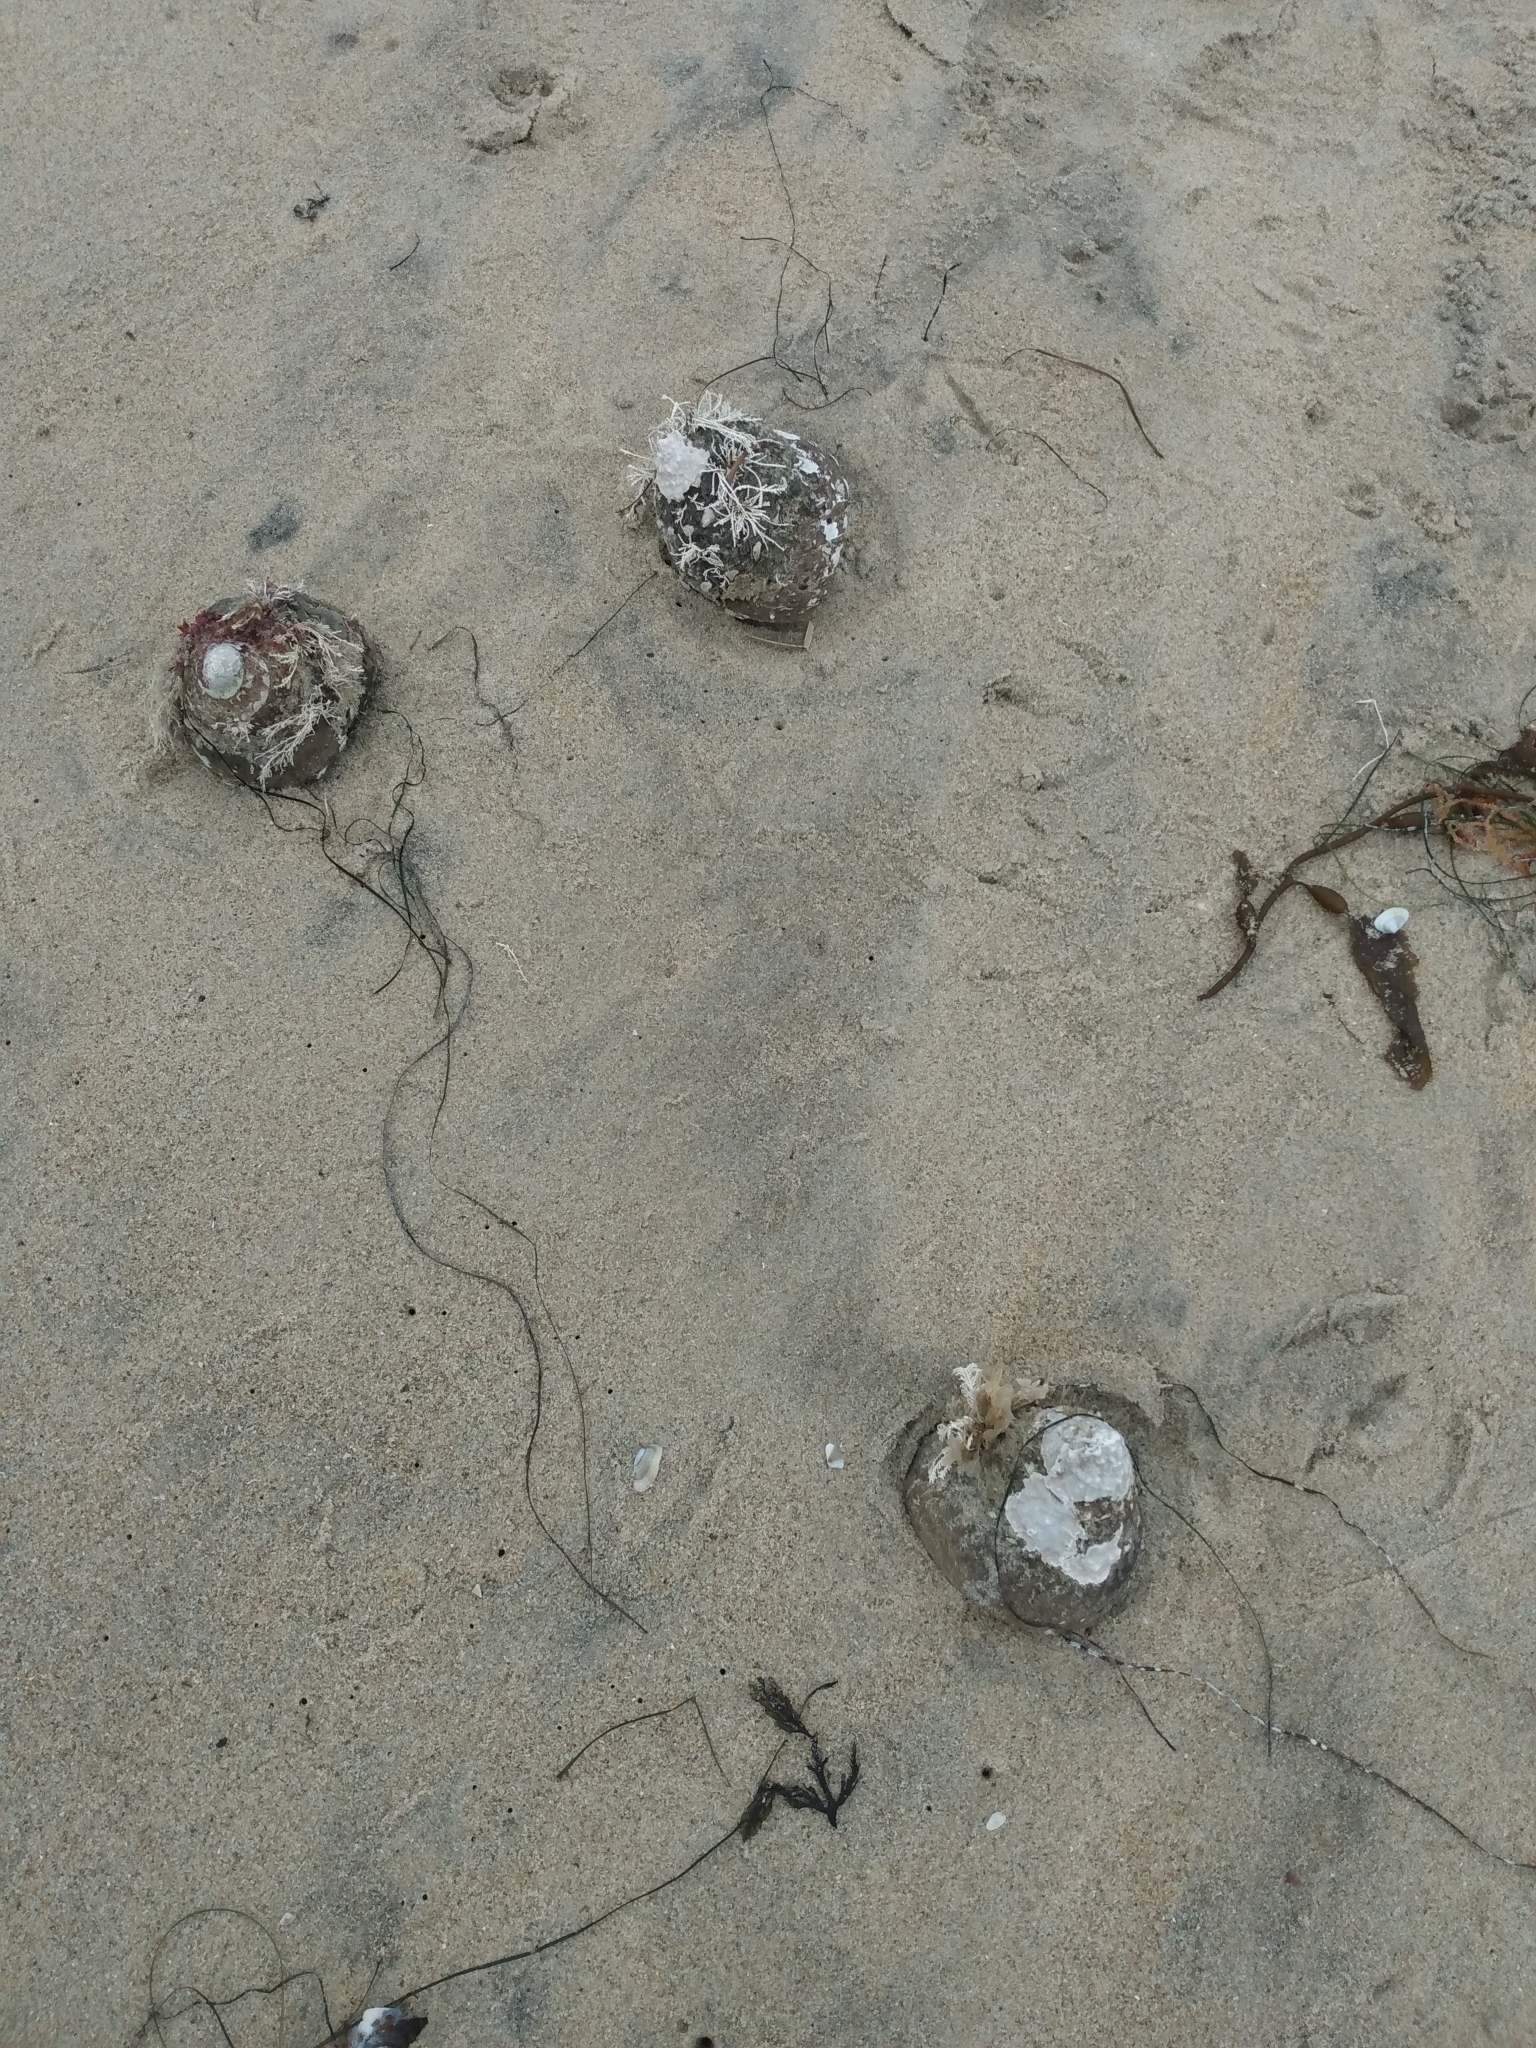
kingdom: Animalia
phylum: Mollusca
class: Gastropoda
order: Trochida
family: Turbinidae
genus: Megastraea
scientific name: Megastraea undosa
